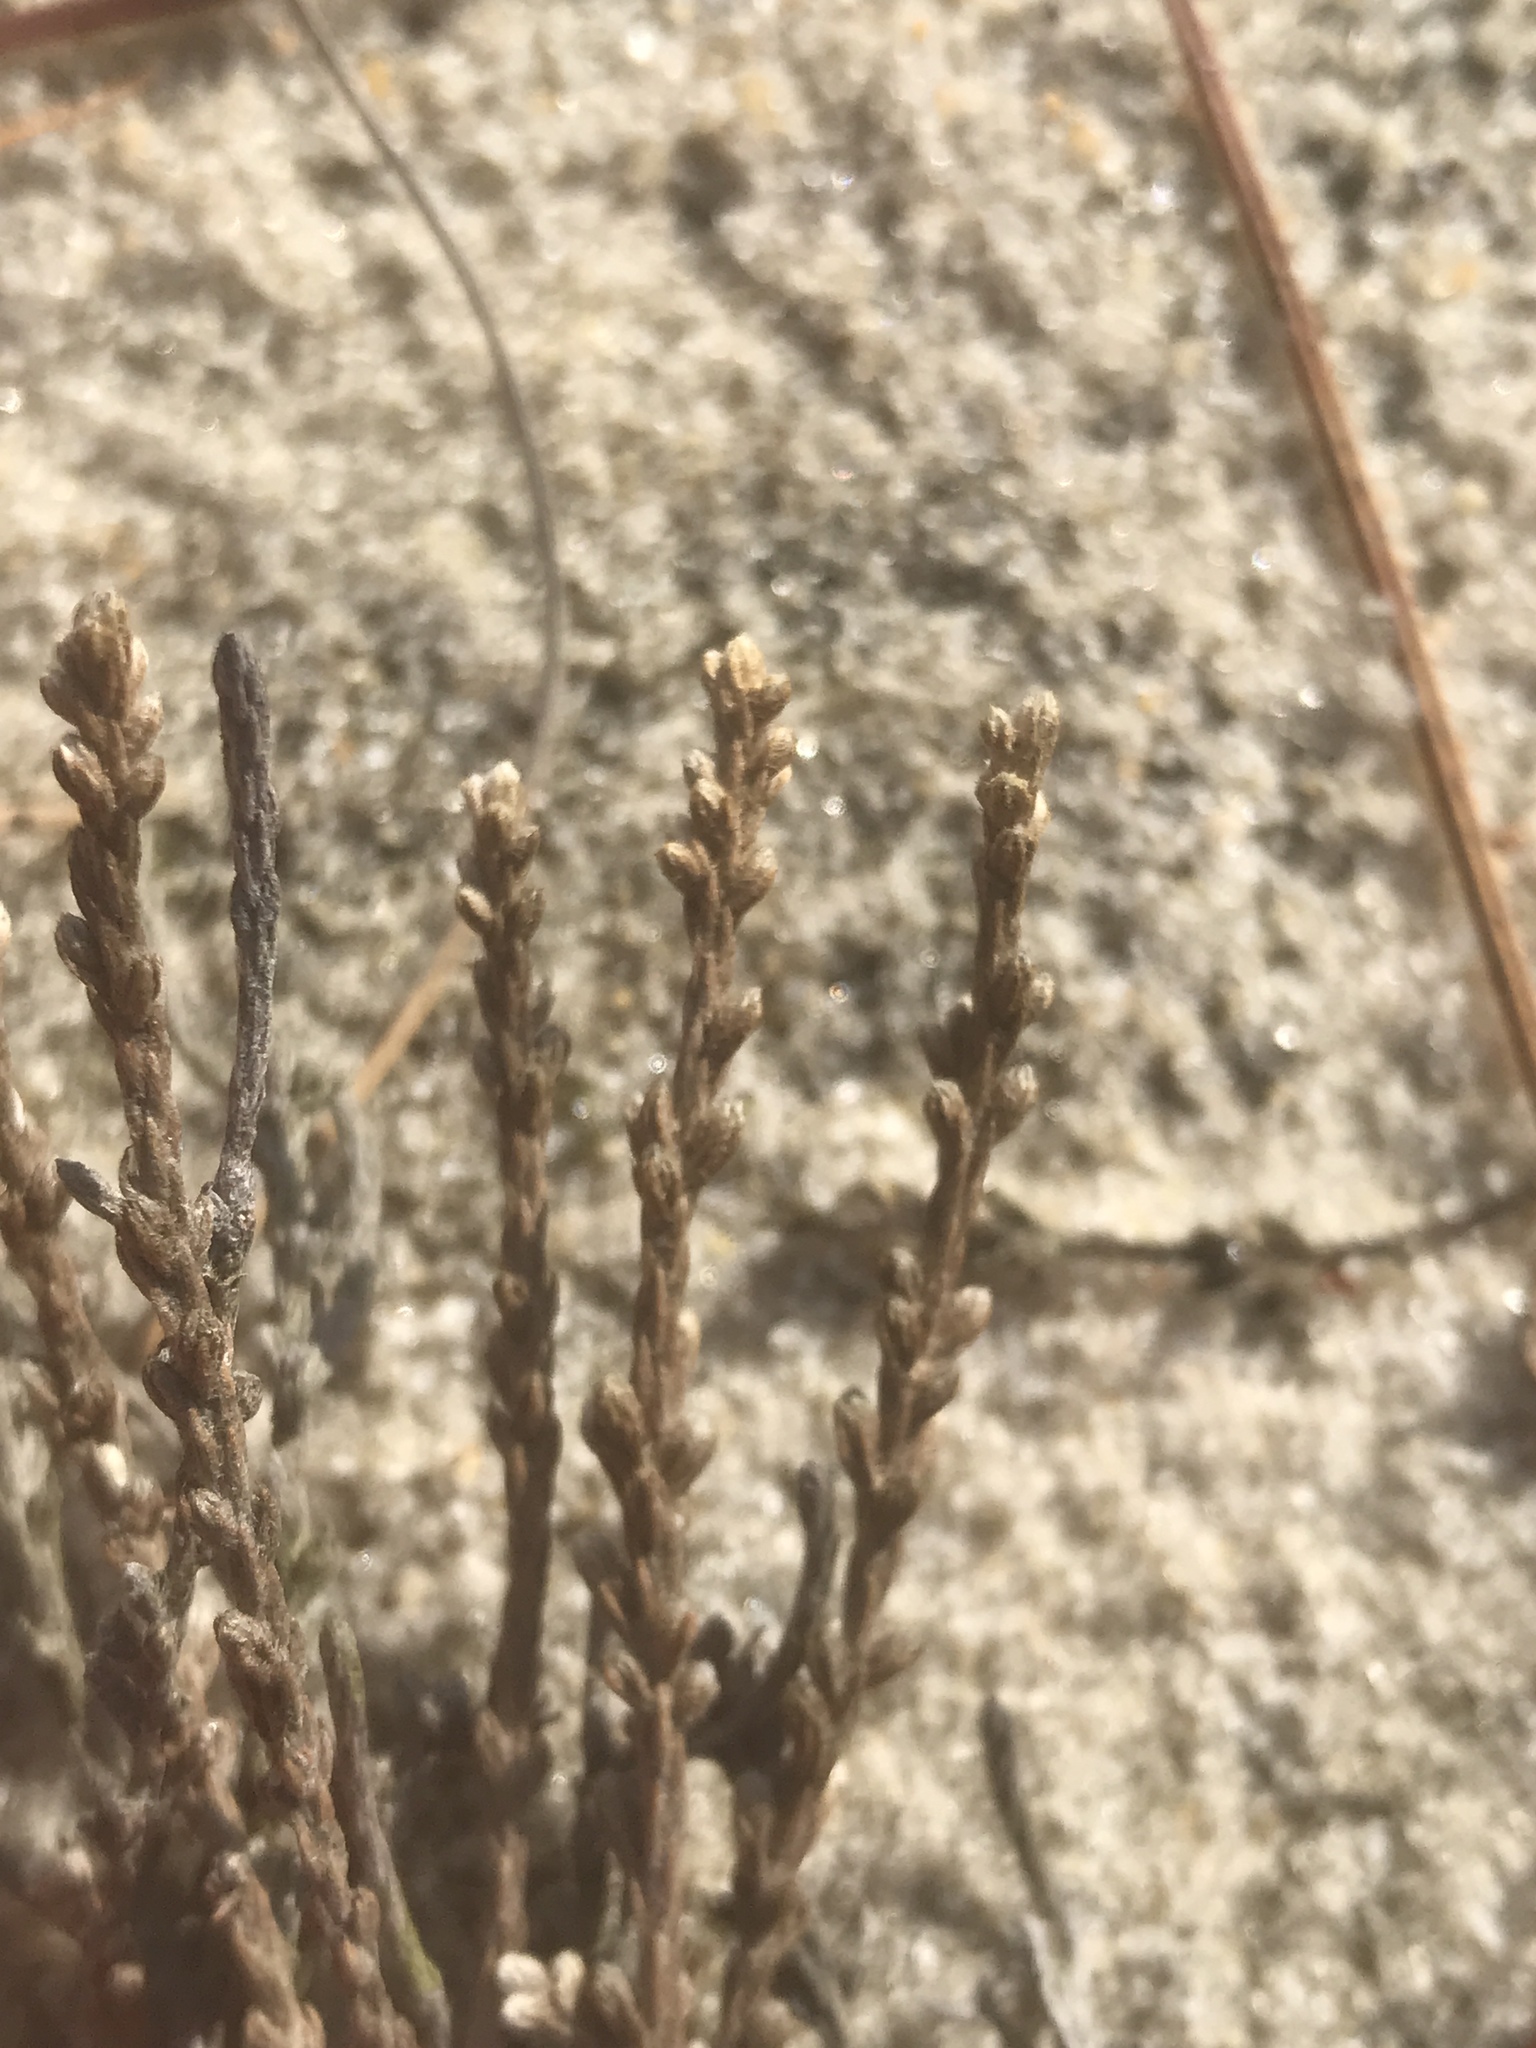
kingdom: Plantae
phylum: Tracheophyta
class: Magnoliopsida
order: Malvales
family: Cistaceae
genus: Hudsonia
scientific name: Hudsonia tomentosa
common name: Beach-heath
